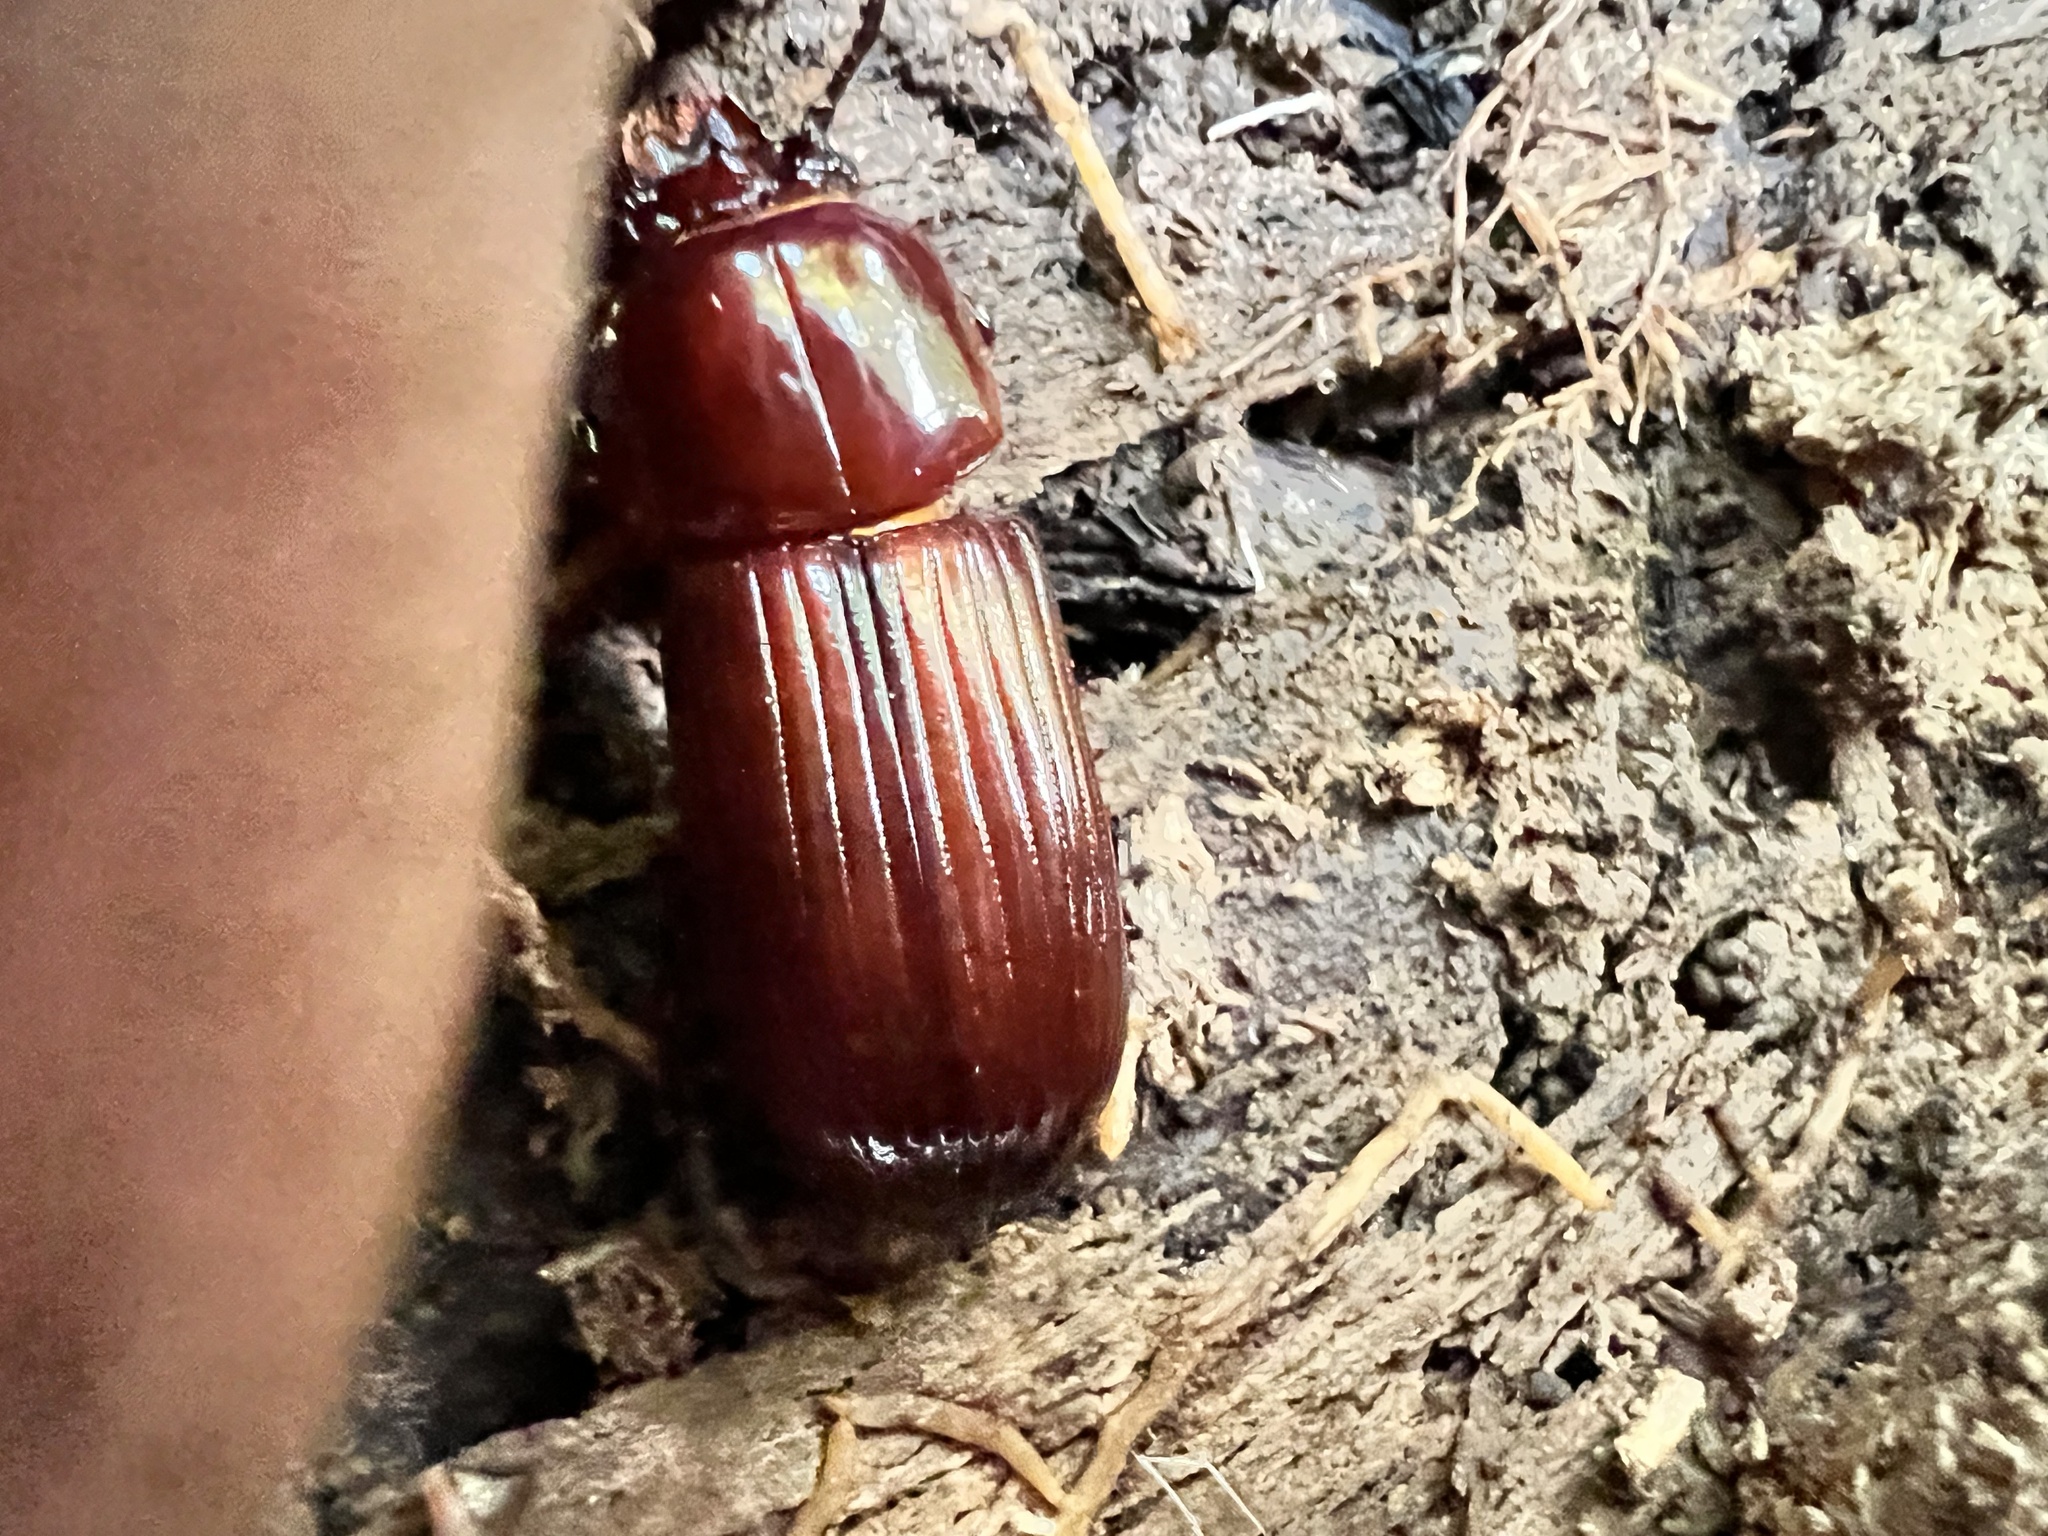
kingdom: Animalia
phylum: Arthropoda
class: Insecta
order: Coleoptera
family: Passalidae
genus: Odontotaenius
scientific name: Odontotaenius disjunctus
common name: Patent leather beetle
